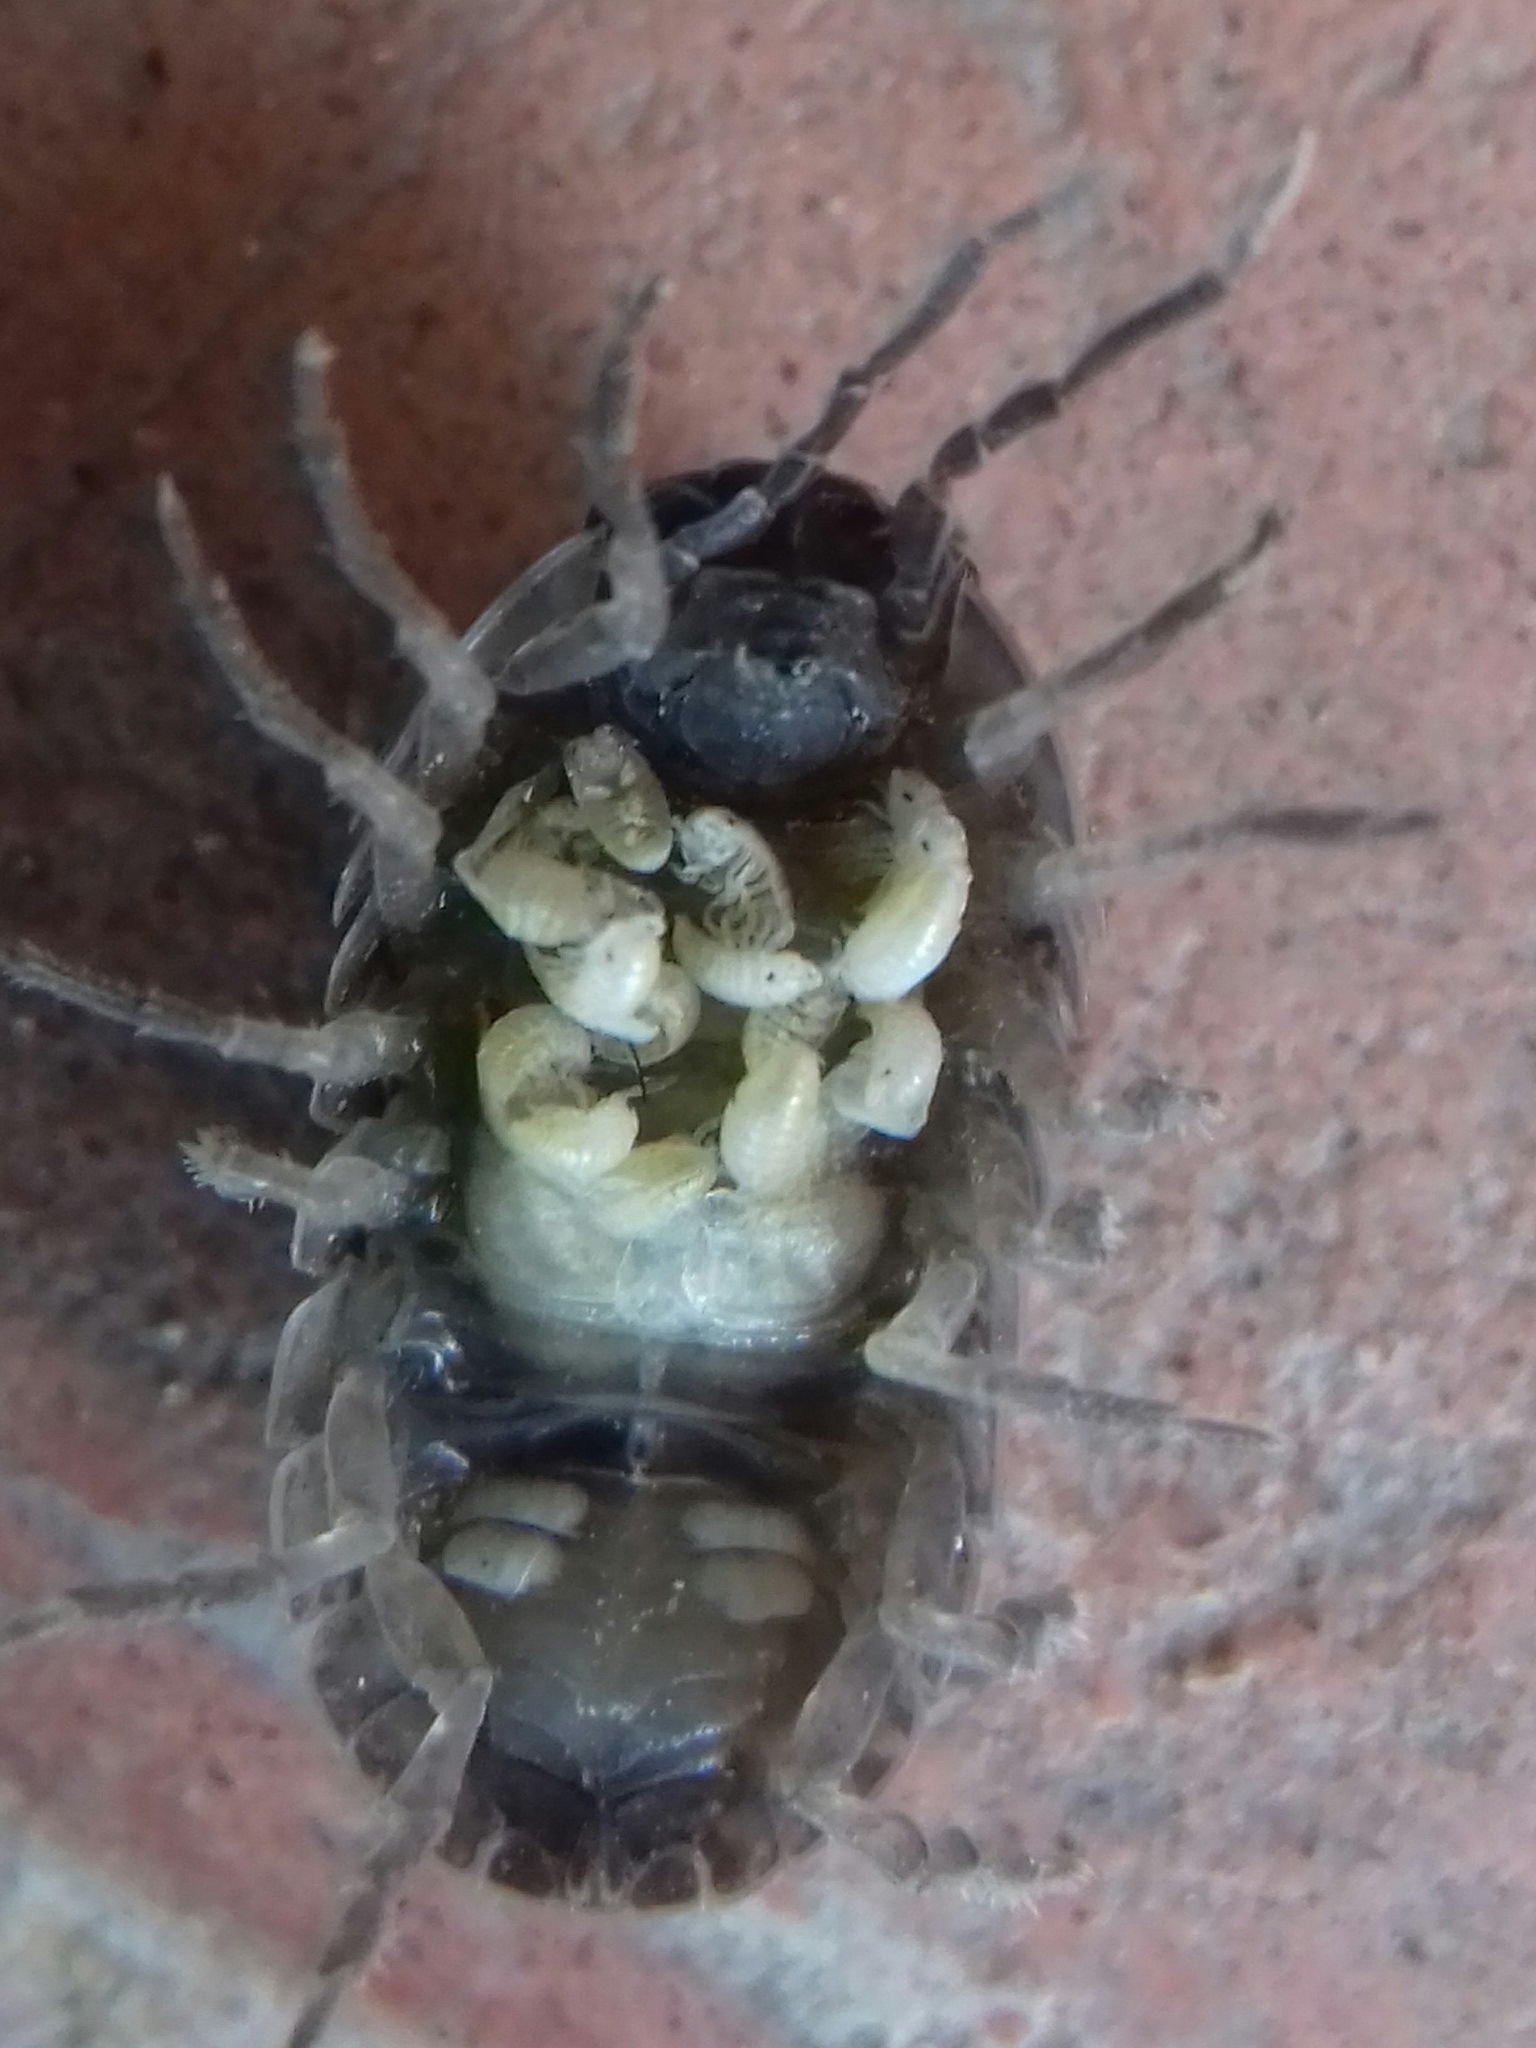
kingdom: Animalia
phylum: Arthropoda
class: Malacostraca
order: Isopoda
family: Armadillidiidae
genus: Armadillidium
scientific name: Armadillidium vulgare
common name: Common pill woodlouse
